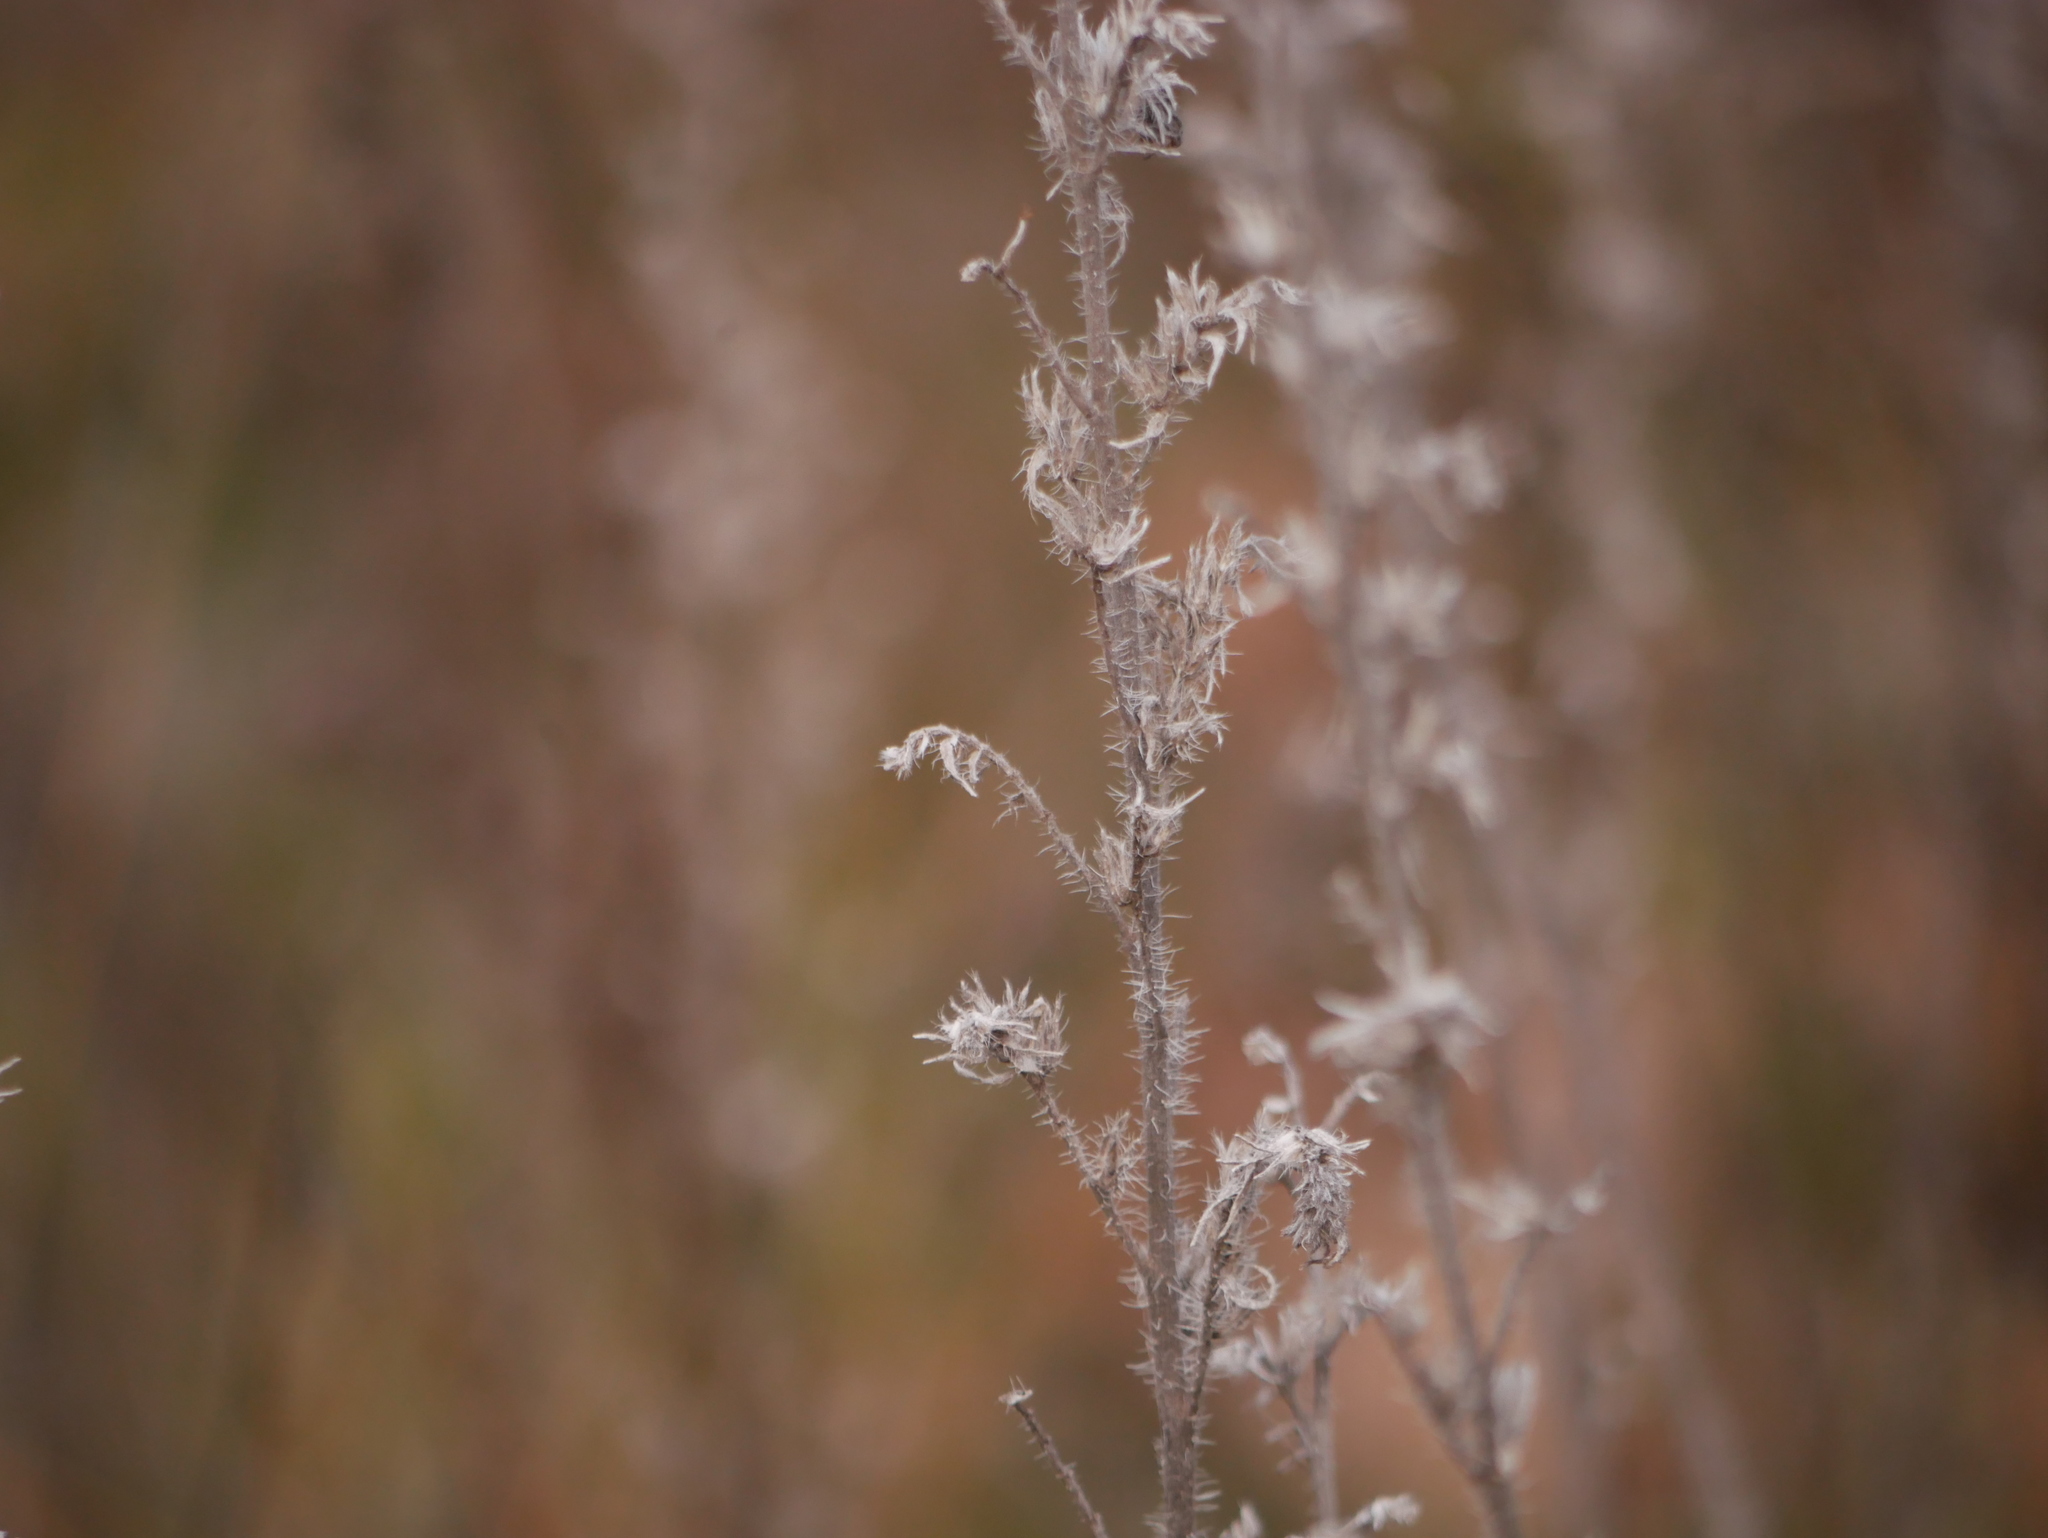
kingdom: Plantae
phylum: Tracheophyta
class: Magnoliopsida
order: Boraginales
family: Boraginaceae
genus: Echium
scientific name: Echium vulgare
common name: Common viper's bugloss
